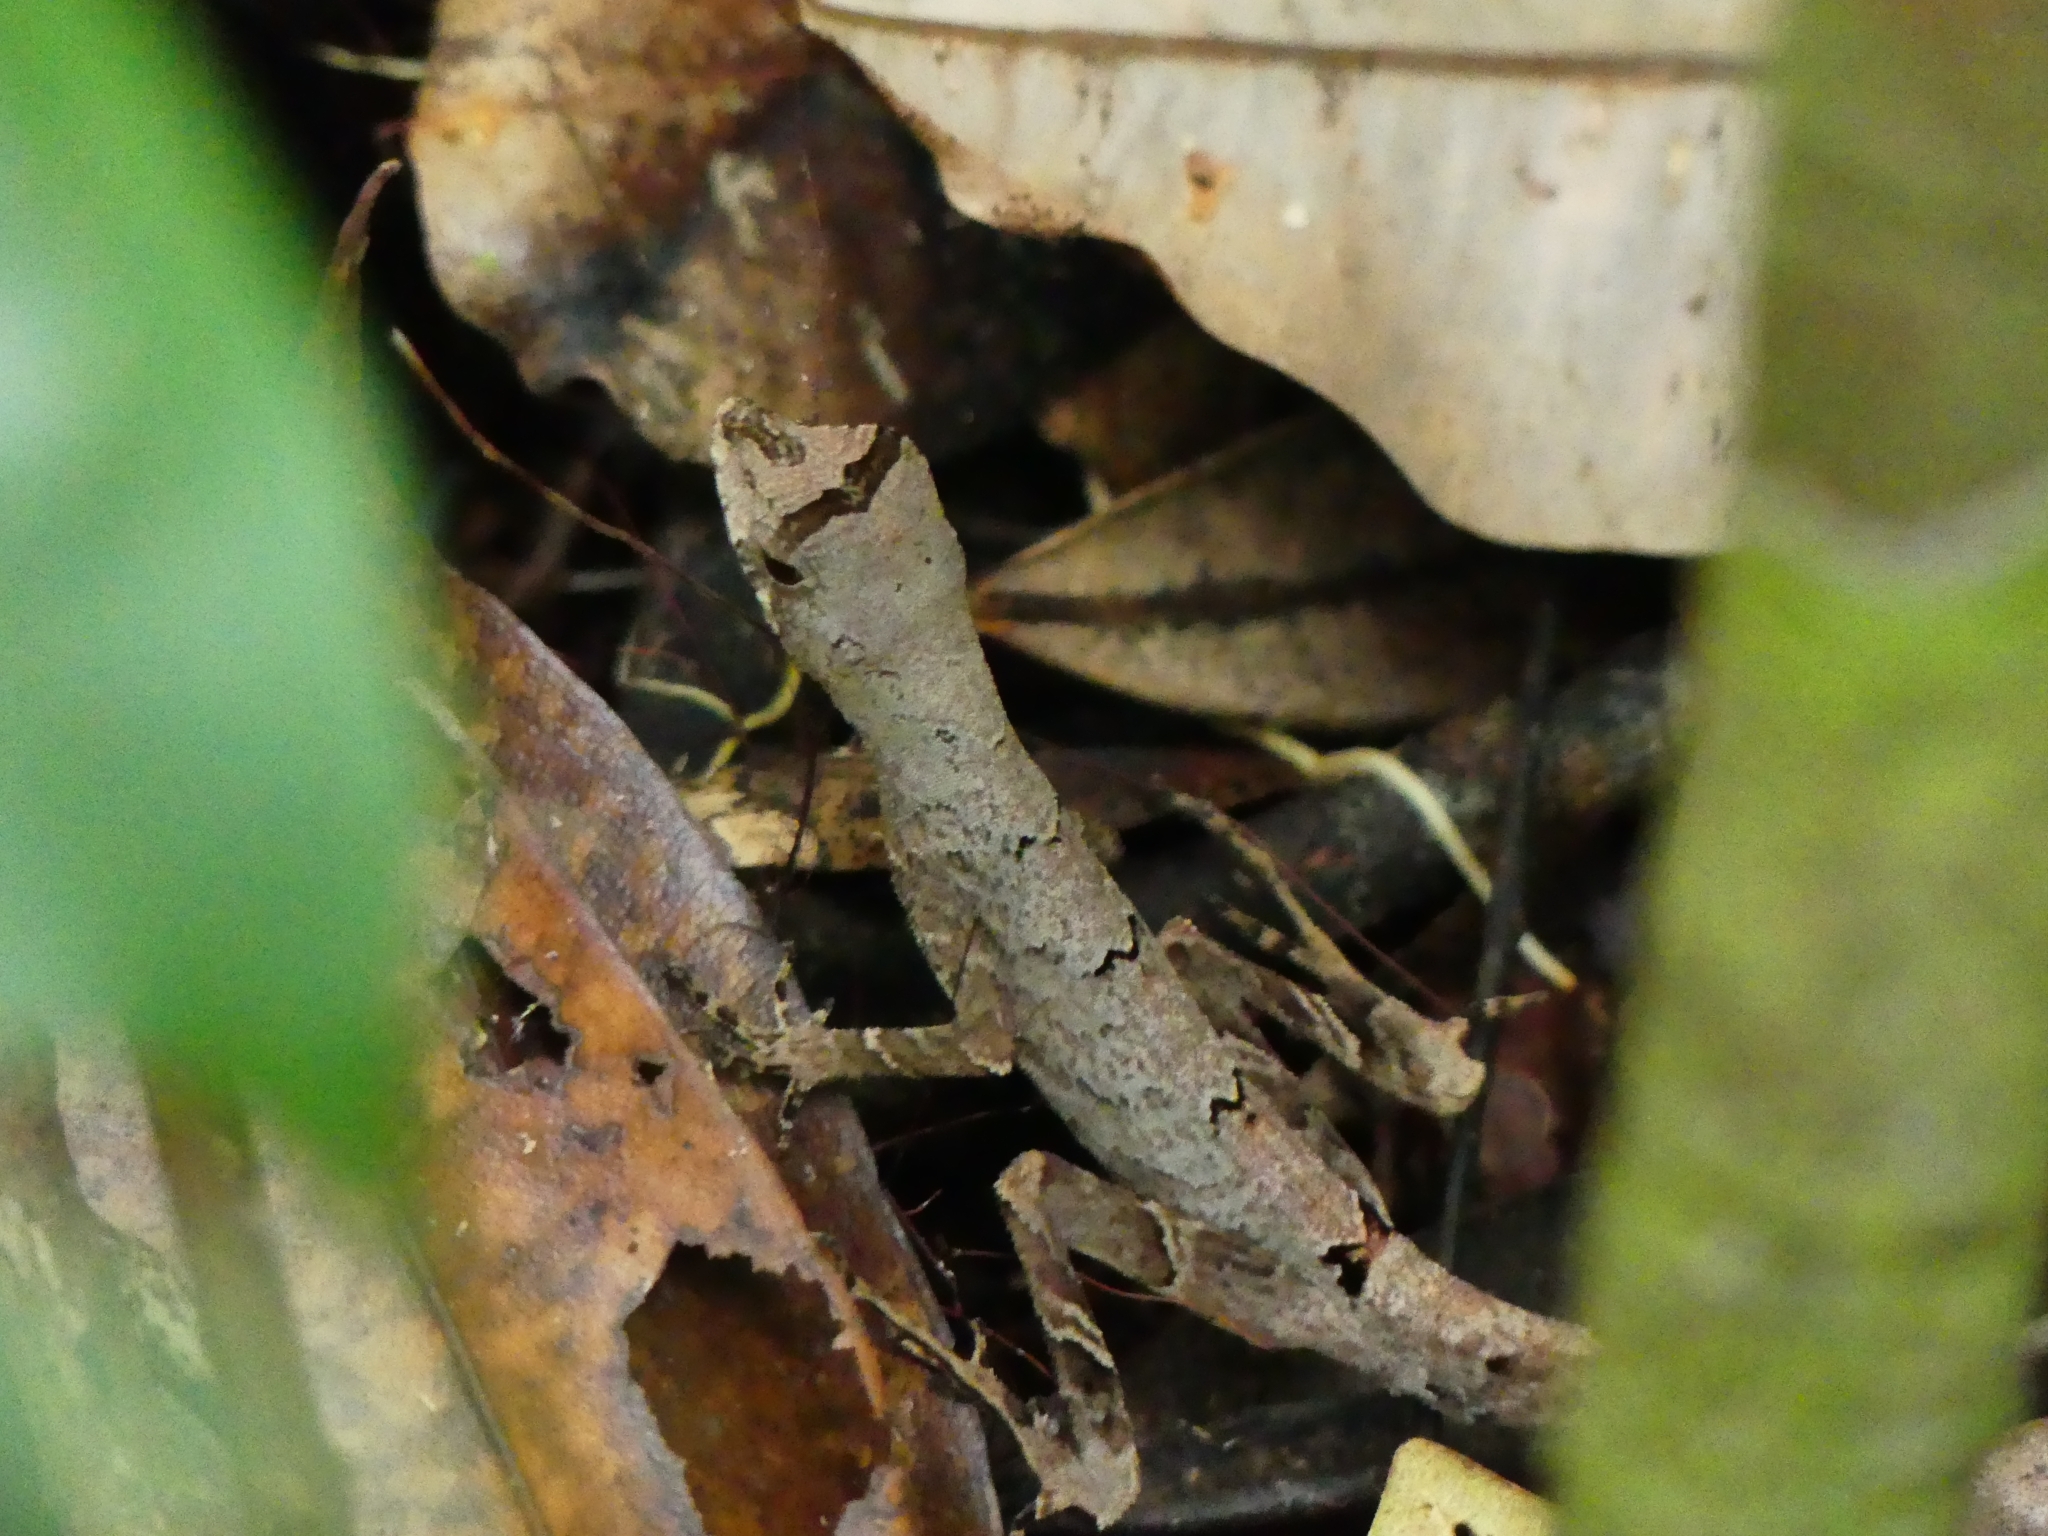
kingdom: Animalia
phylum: Chordata
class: Squamata
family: Dactyloidae
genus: Anolis
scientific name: Anolis chrysolepis
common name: Goldenscale anole
